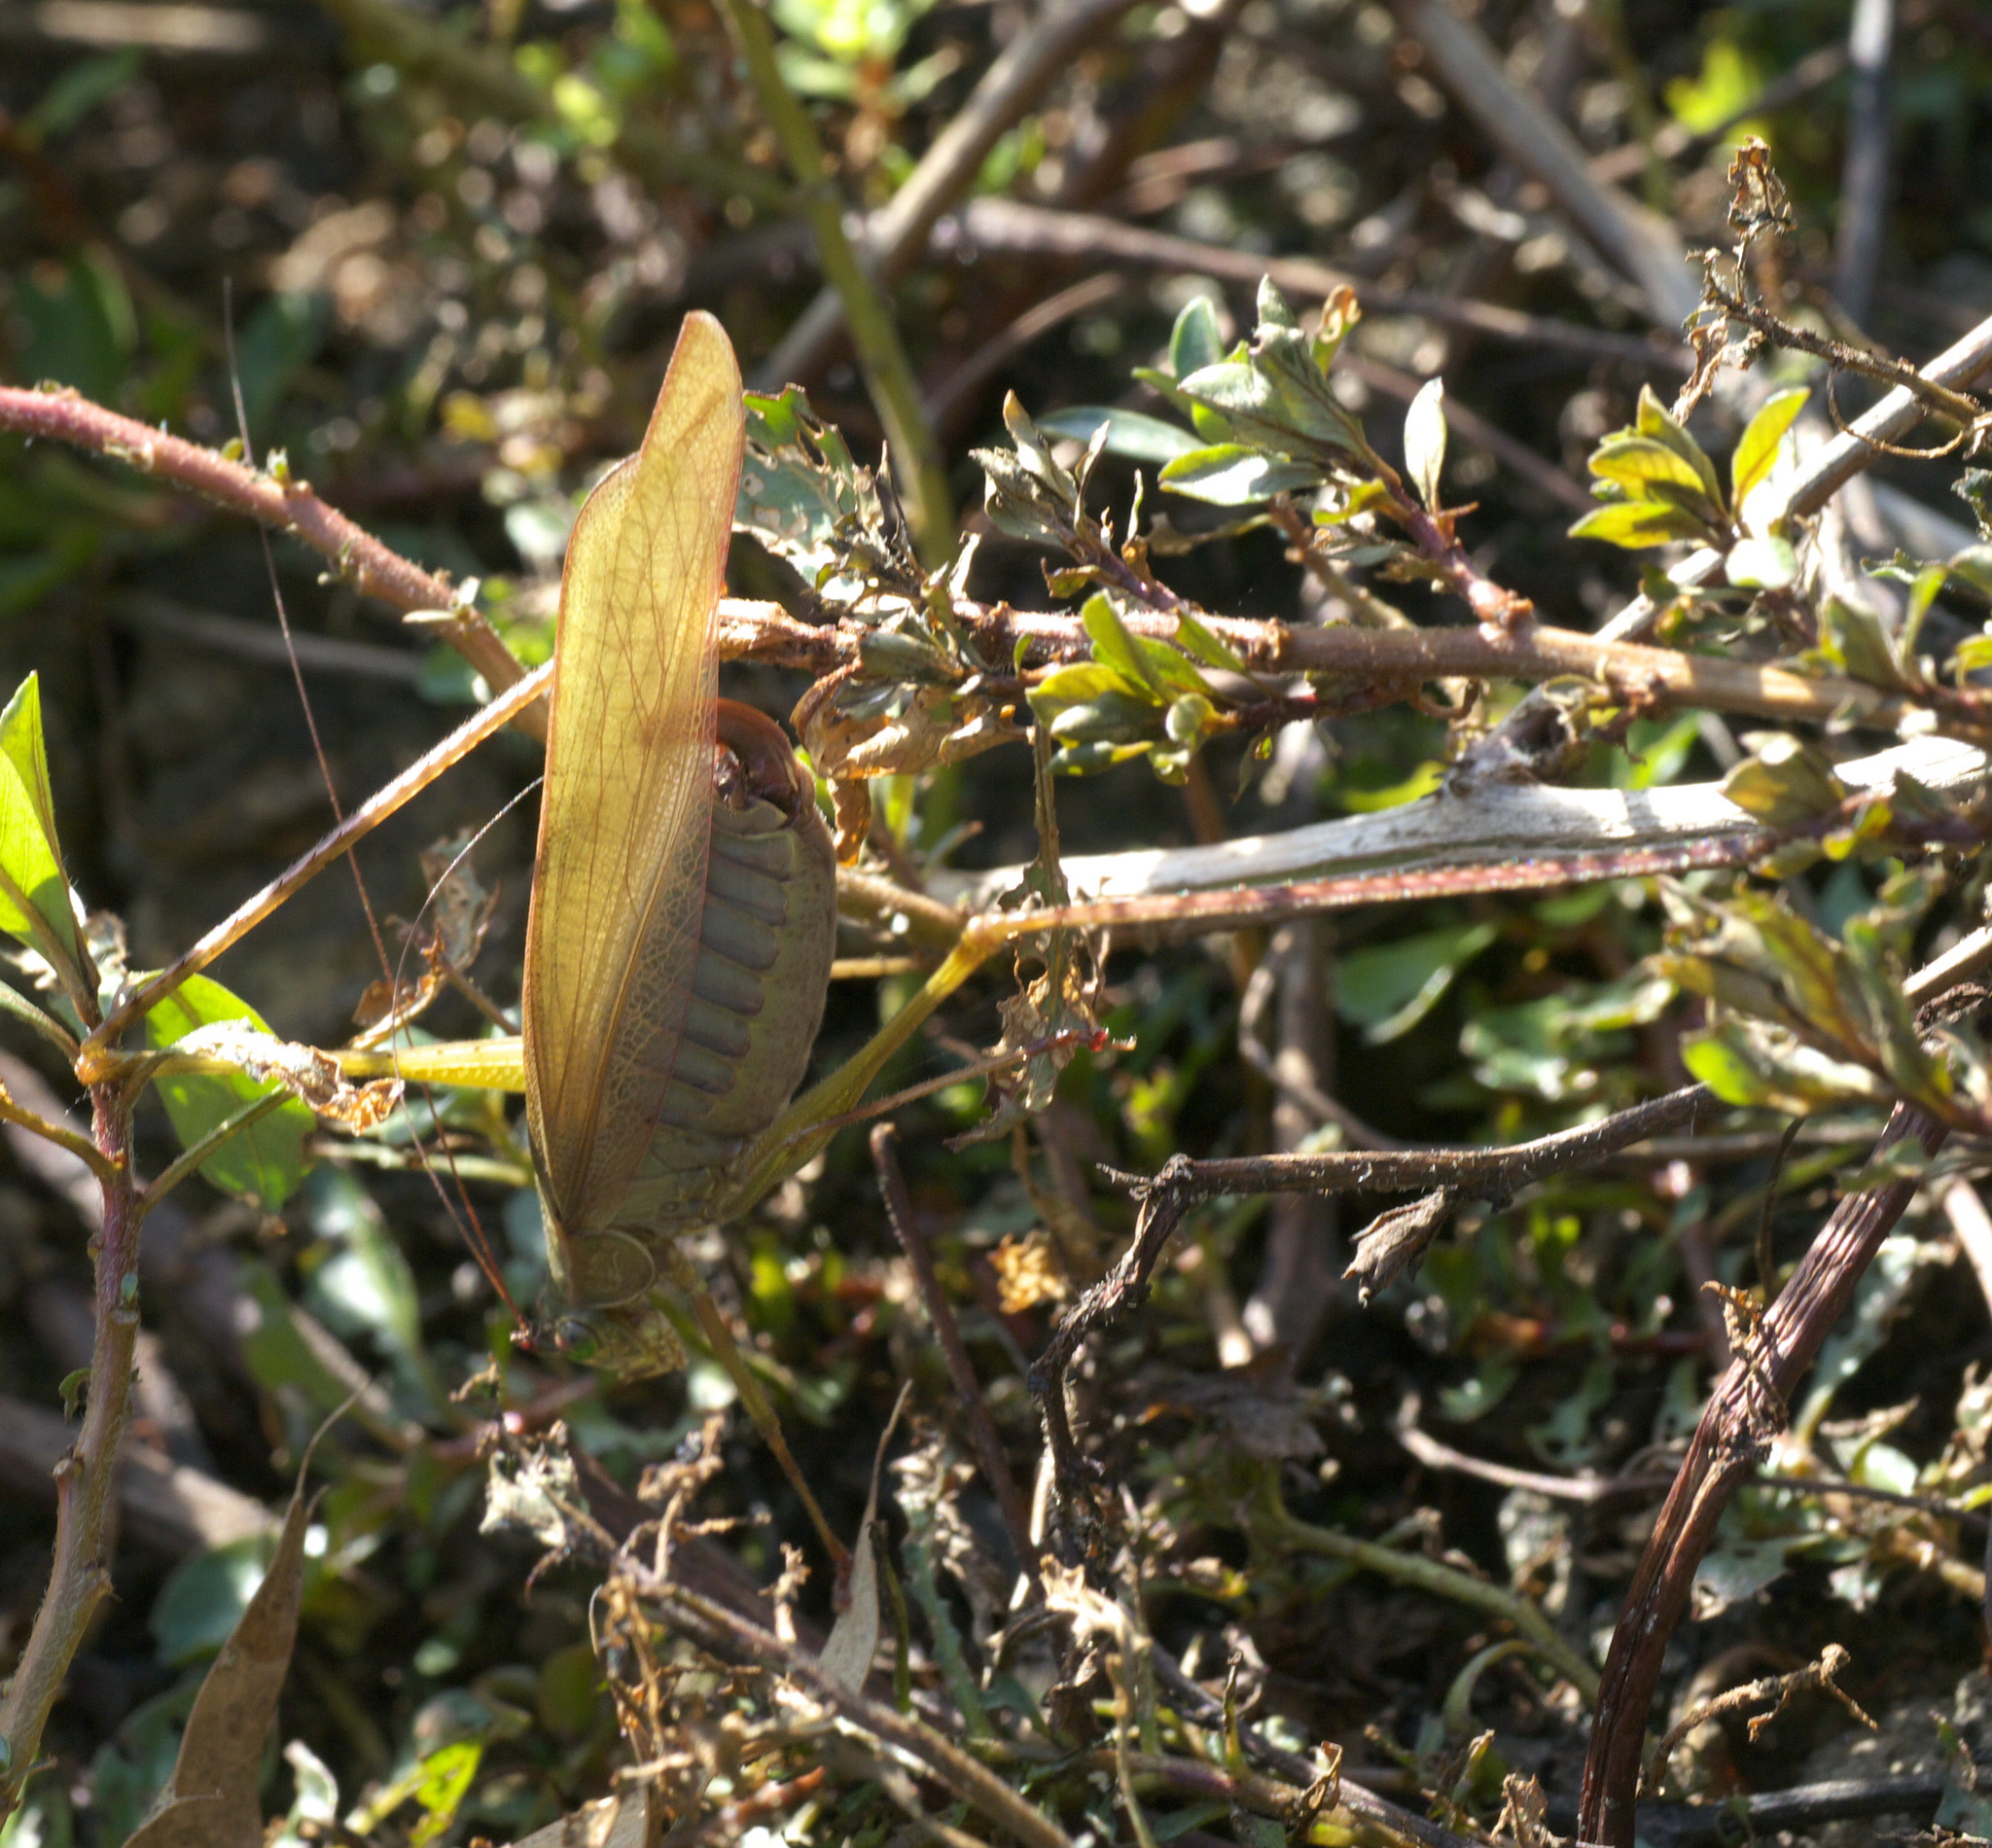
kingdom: Animalia
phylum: Arthropoda
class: Insecta
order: Orthoptera
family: Tettigoniidae
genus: Scudderia
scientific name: Scudderia furcata
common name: Fork-tailed bush katydid
